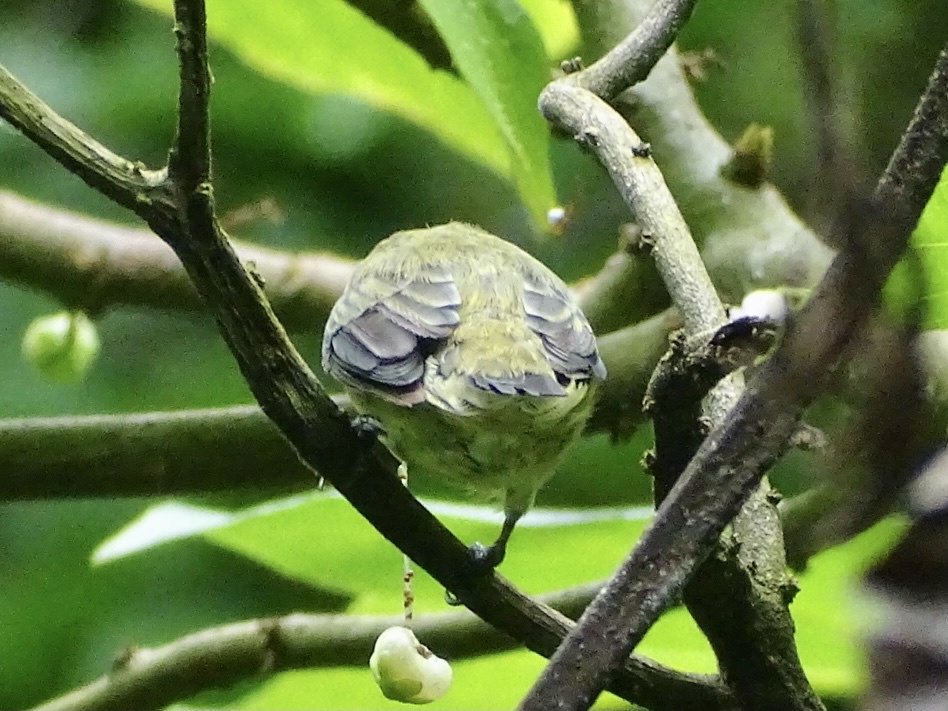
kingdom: Animalia
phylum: Chordata
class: Aves
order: Passeriformes
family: Dicaeidae
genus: Dicaeum
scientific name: Dicaeum ignipectus
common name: Fire-breasted flowerpecker
